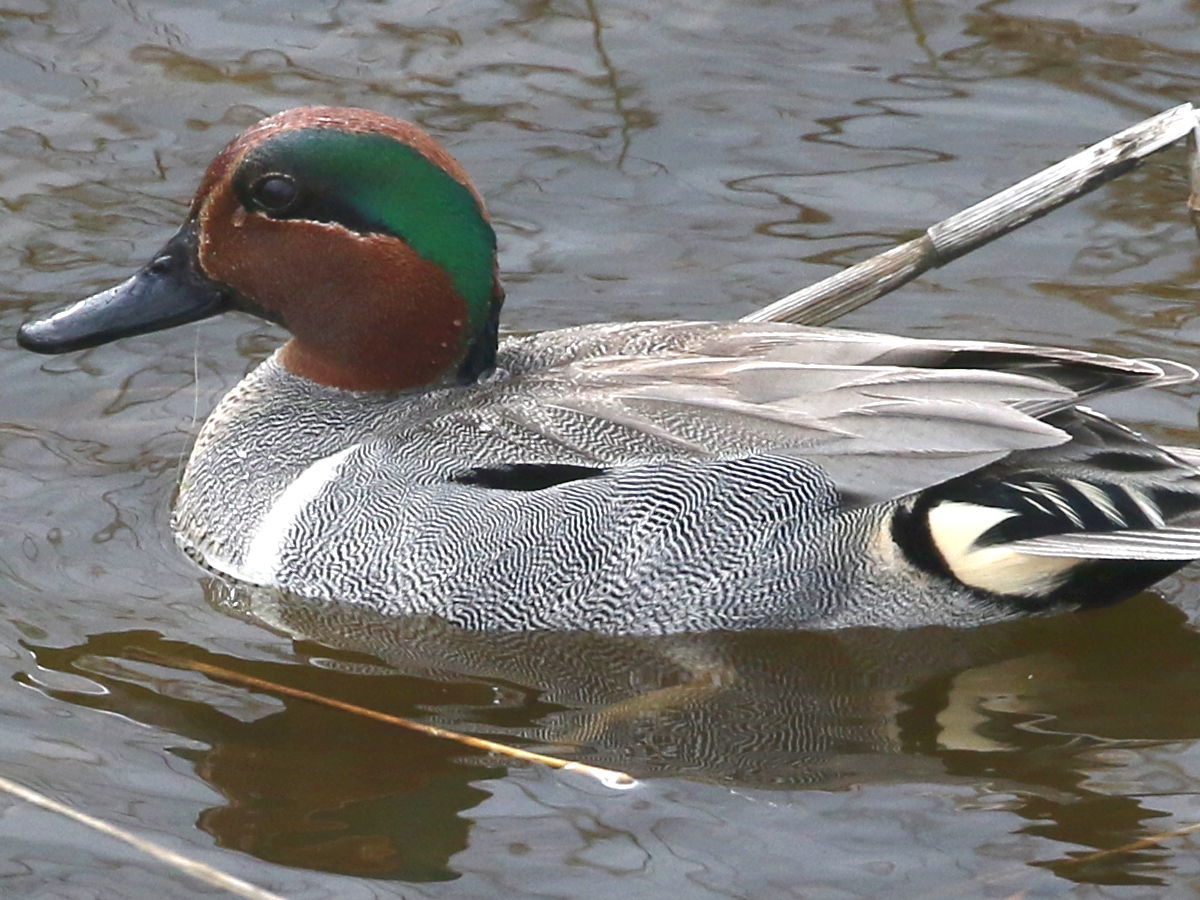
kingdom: Animalia
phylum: Chordata
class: Aves
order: Anseriformes
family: Anatidae
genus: Anas
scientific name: Anas carolinensis
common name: Green-winged teal
